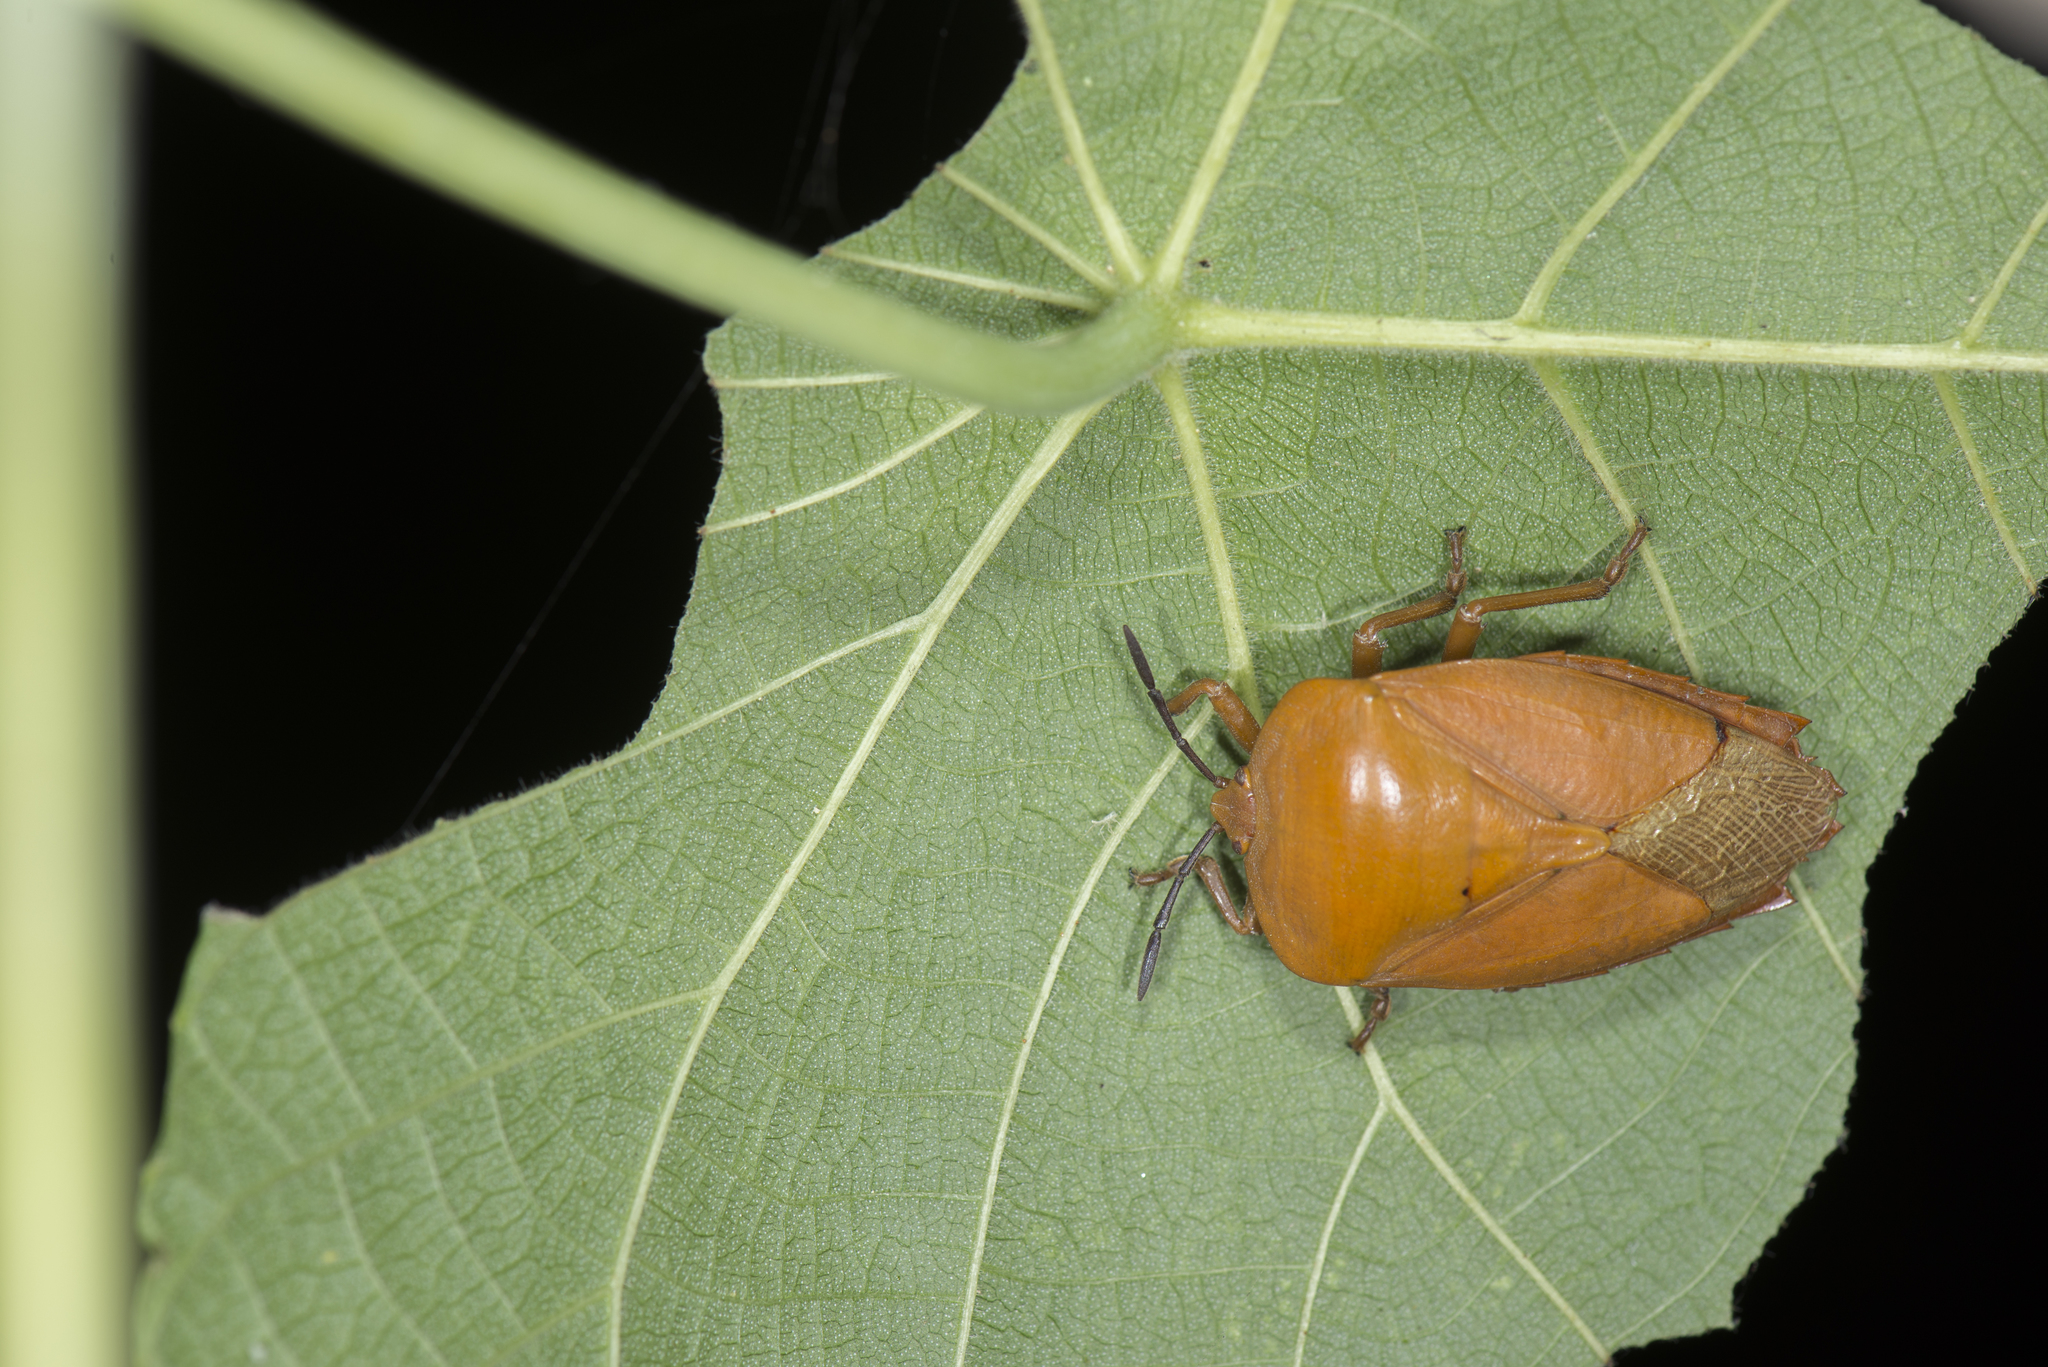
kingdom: Animalia
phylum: Arthropoda
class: Insecta
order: Hemiptera
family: Tessaratomidae
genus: Tessaratoma
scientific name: Tessaratoma papillosa
